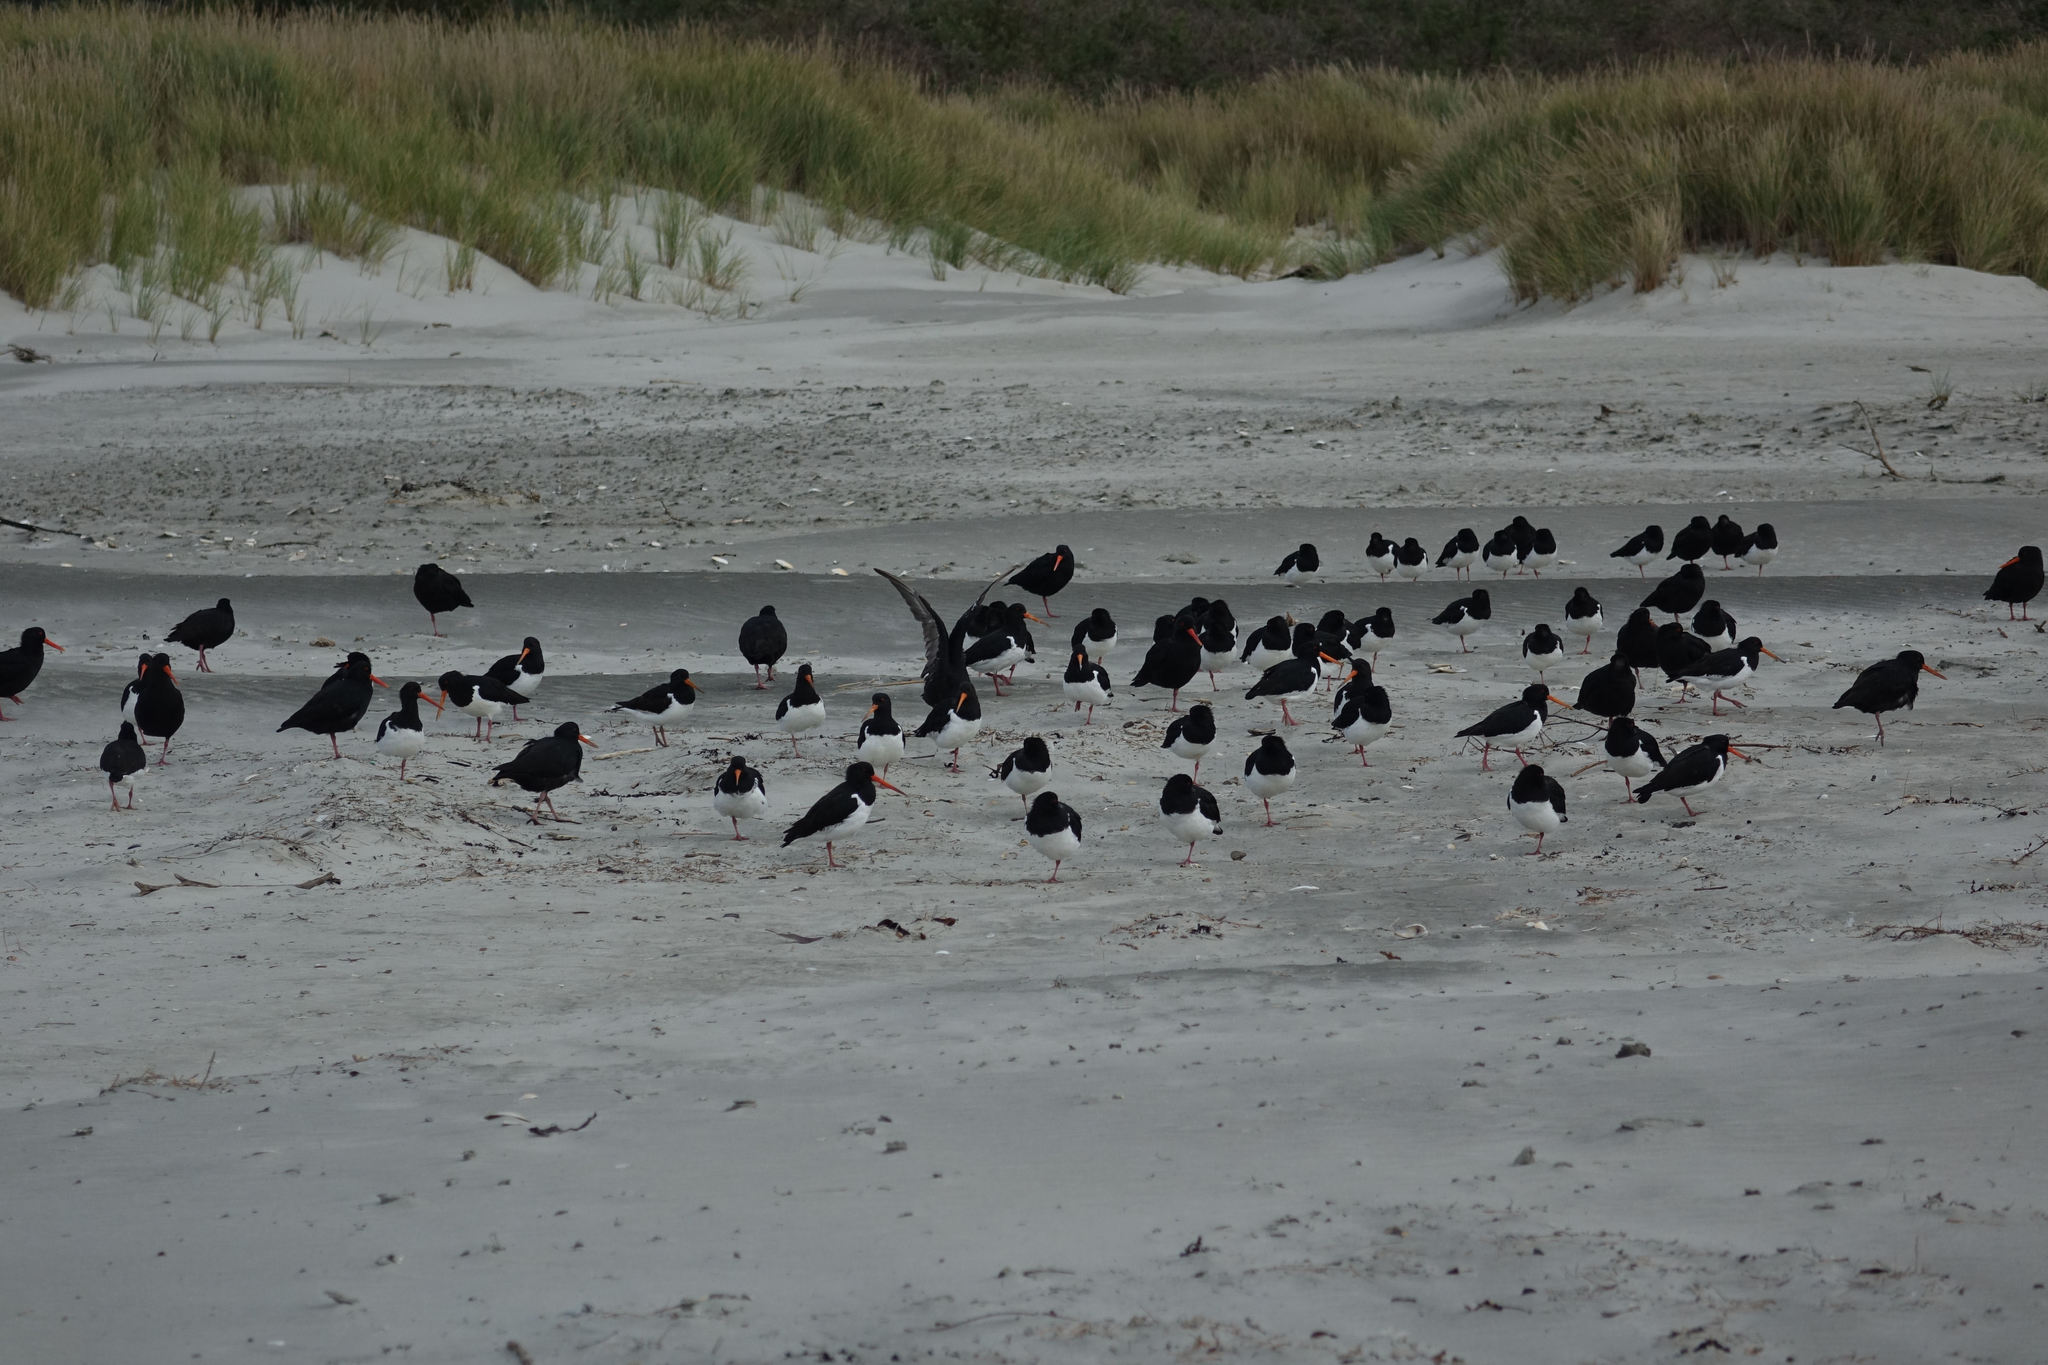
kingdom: Animalia
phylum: Chordata
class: Aves
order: Charadriiformes
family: Haematopodidae
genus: Haematopus
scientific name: Haematopus finschi
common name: South island oystercatcher
